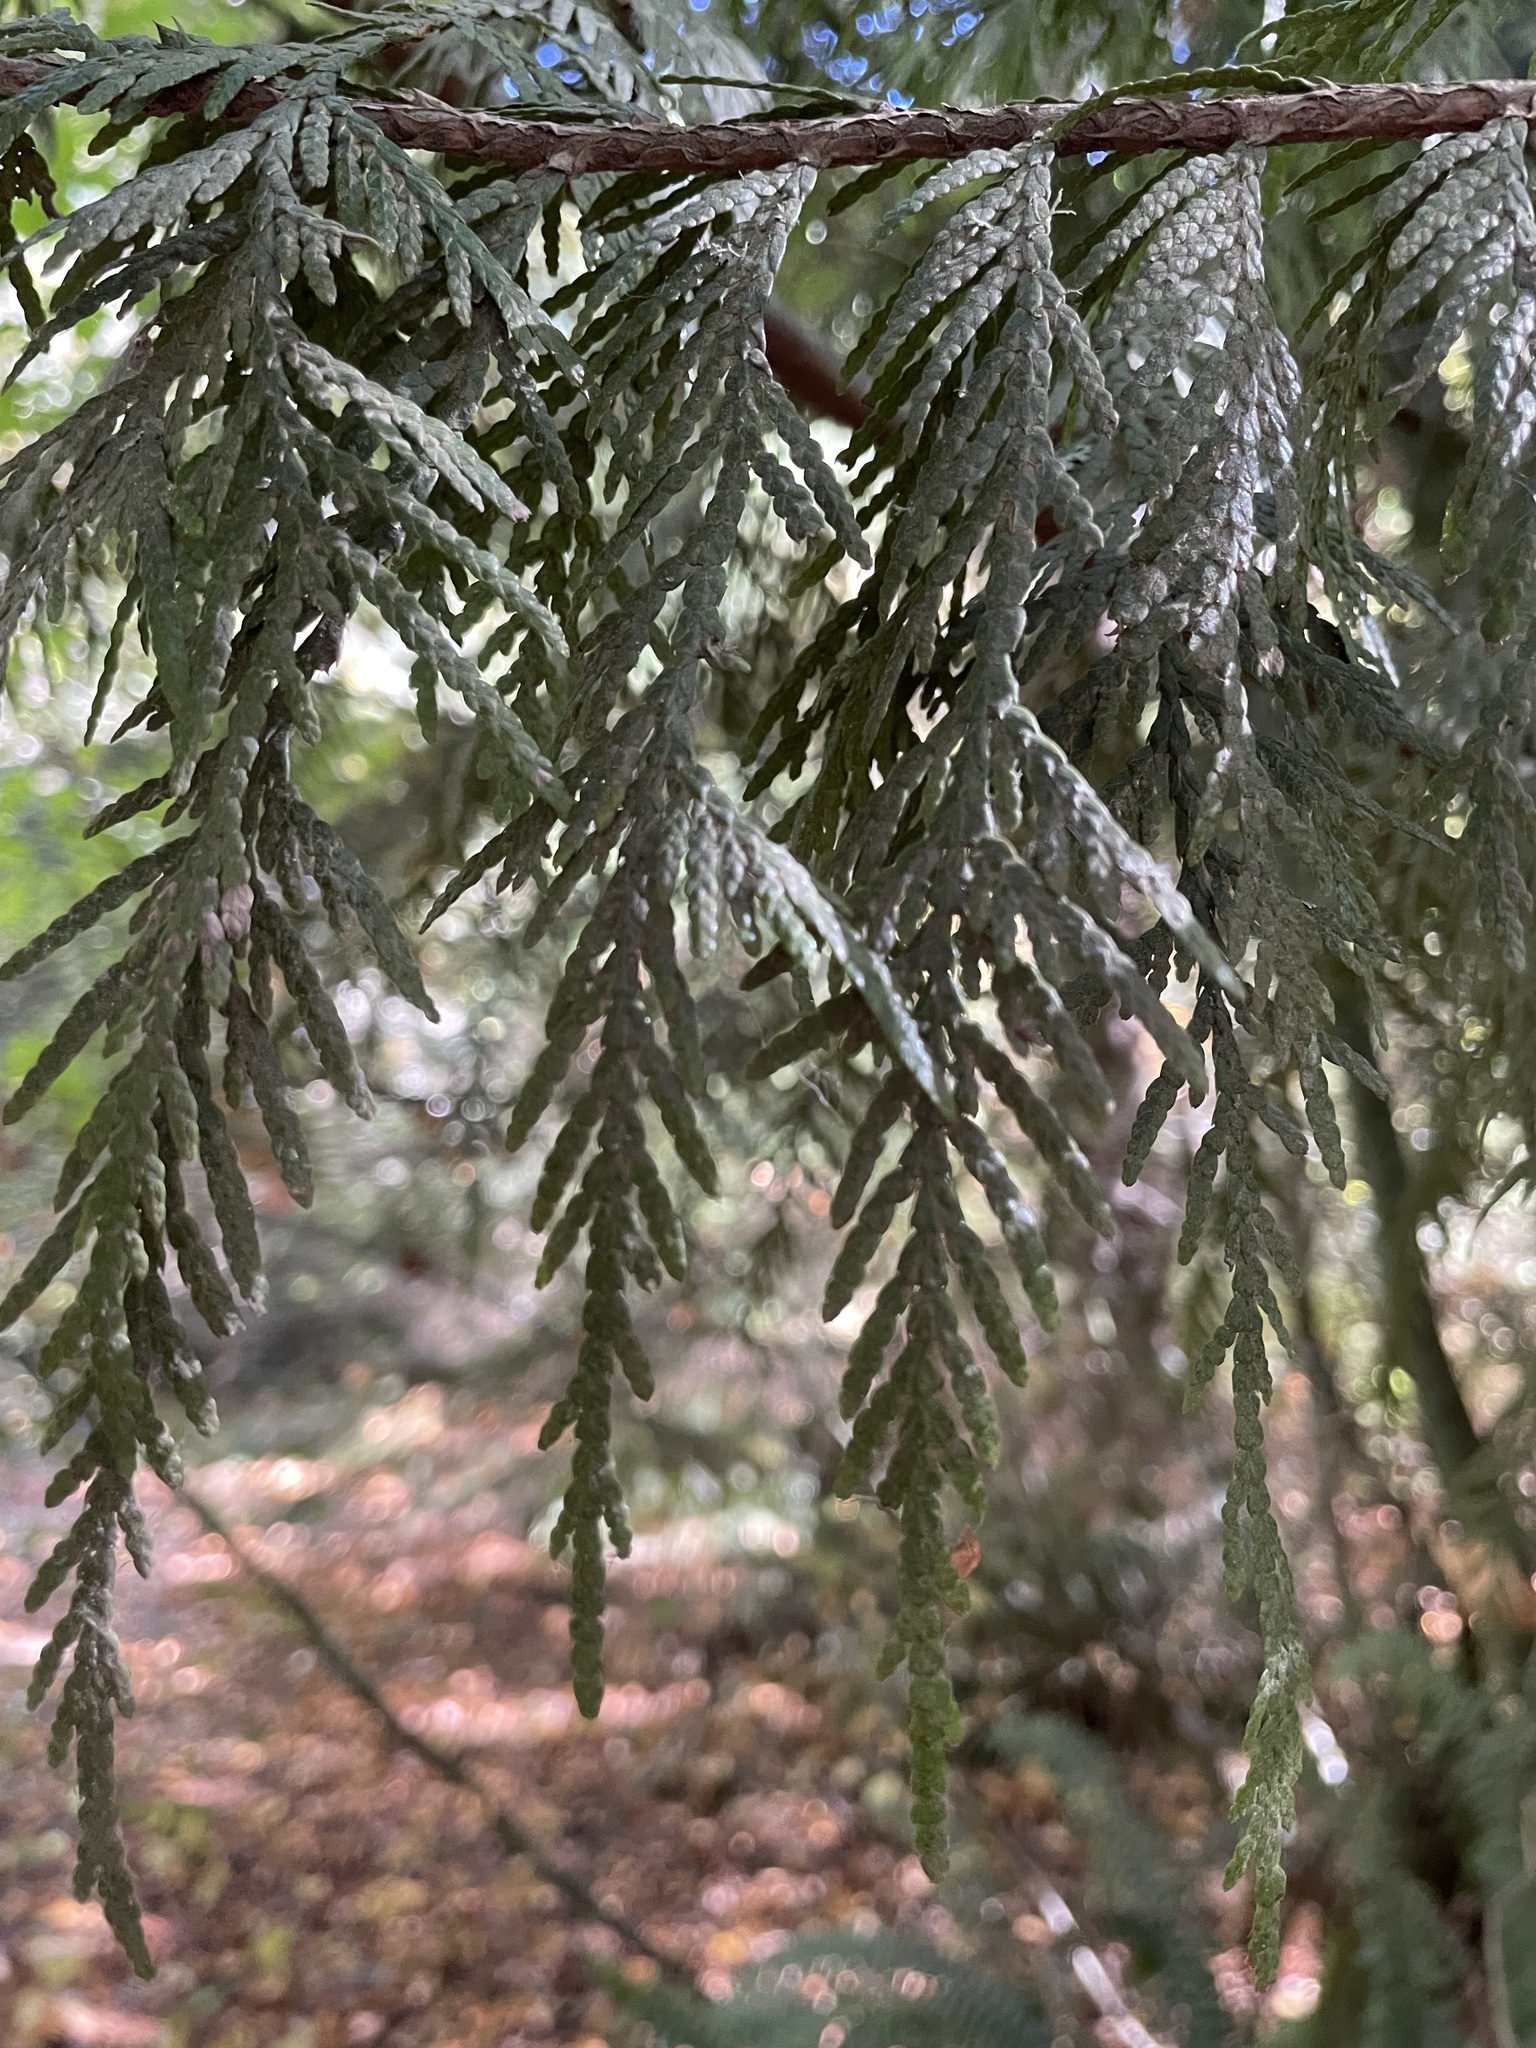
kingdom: Plantae
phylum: Tracheophyta
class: Pinopsida
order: Pinales
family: Cupressaceae
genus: Thuja
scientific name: Thuja plicata
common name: Western red-cedar
